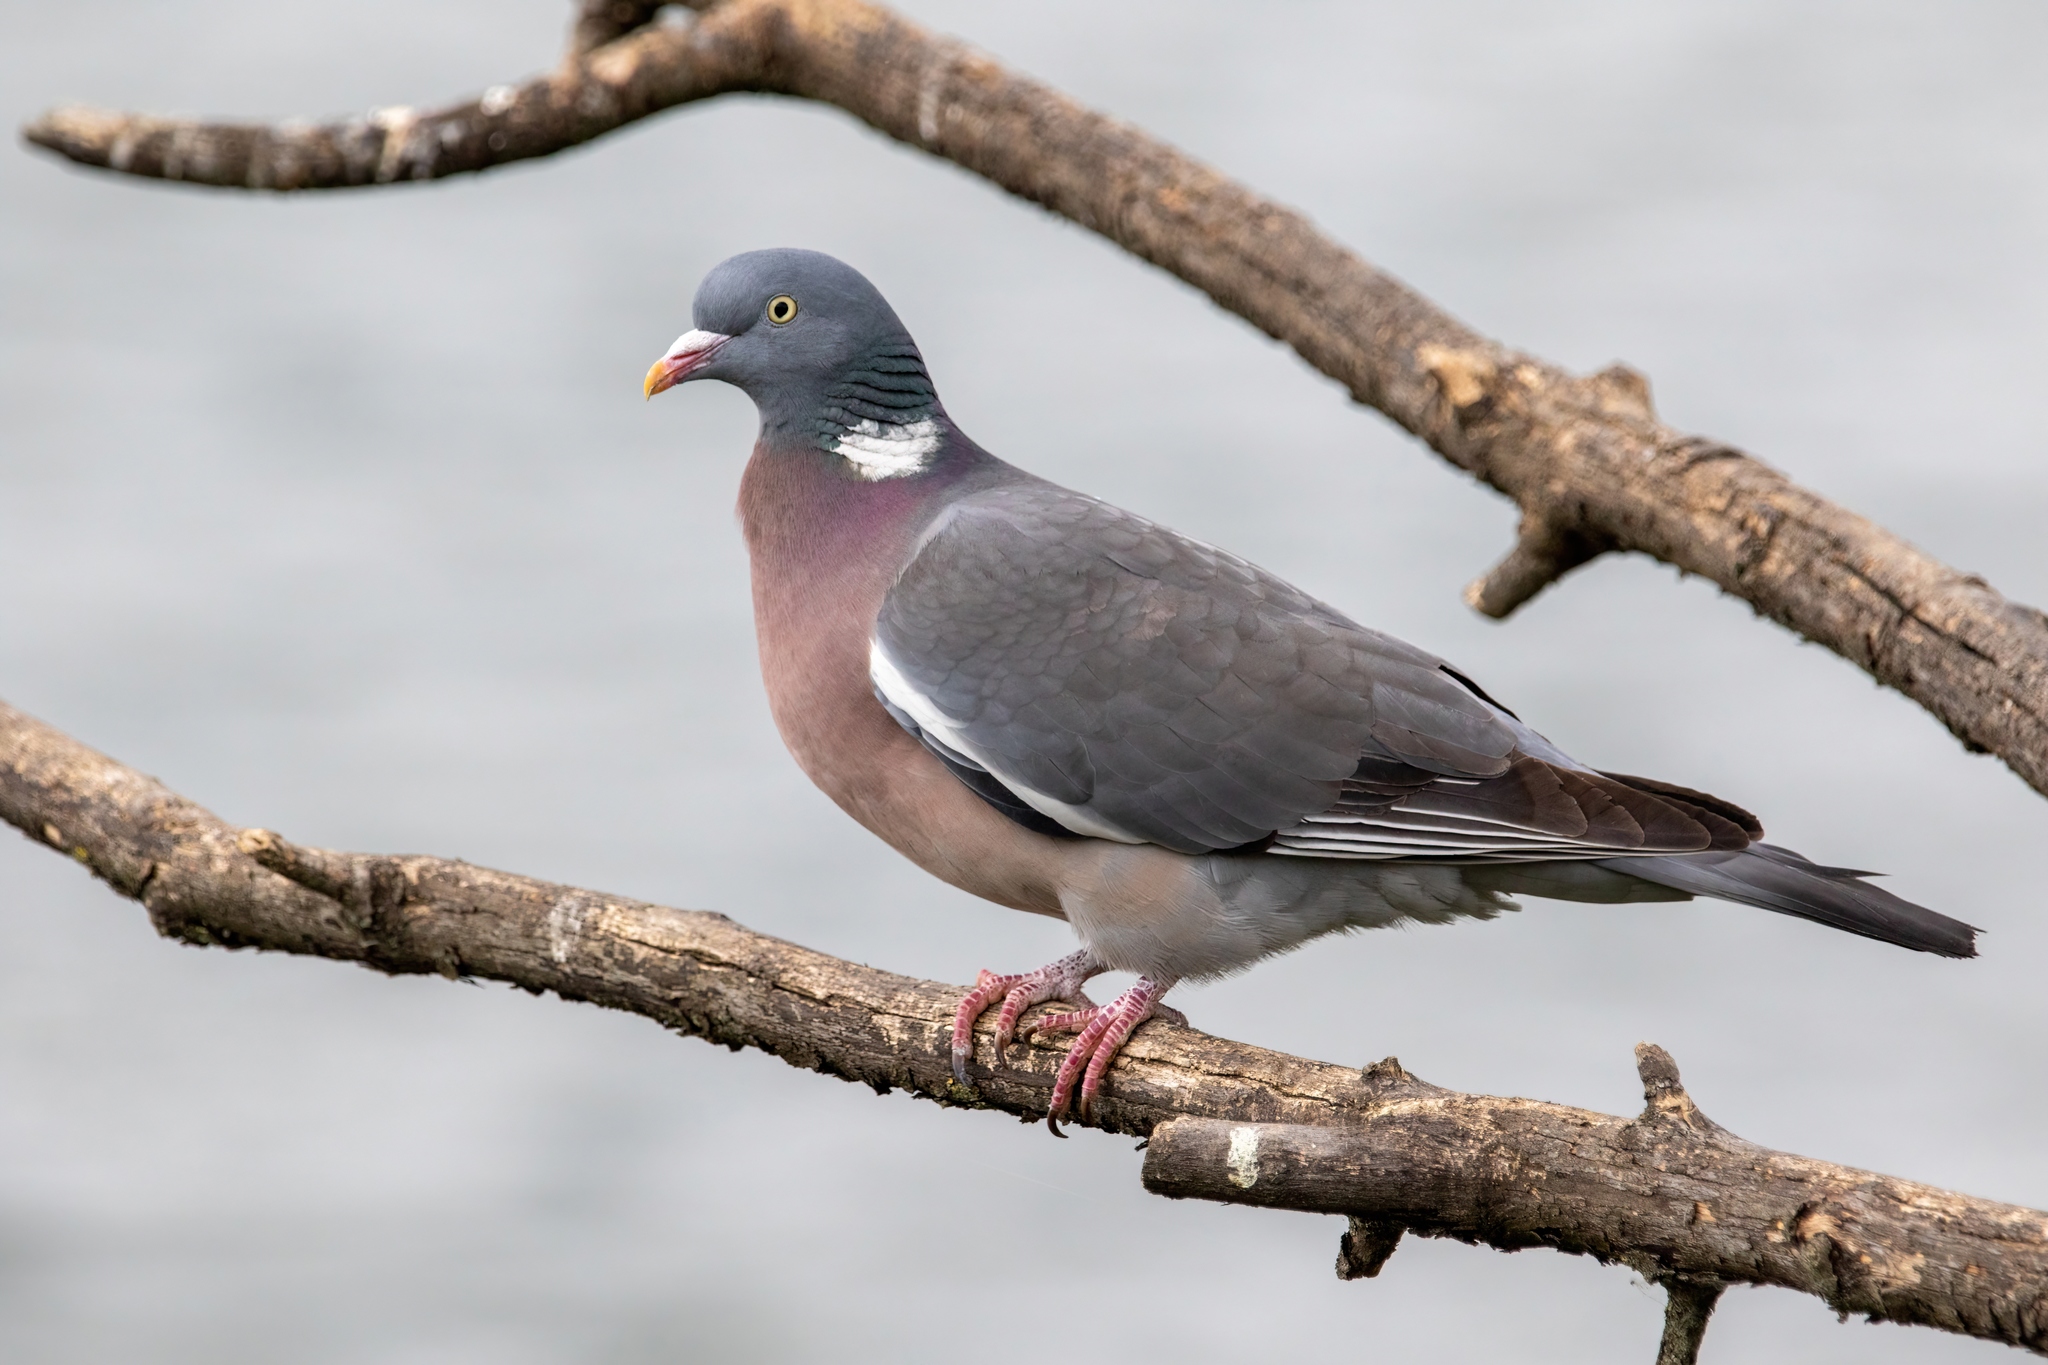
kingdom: Animalia
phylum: Chordata
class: Aves
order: Columbiformes
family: Columbidae
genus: Columba
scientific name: Columba palumbus
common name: Common wood pigeon
